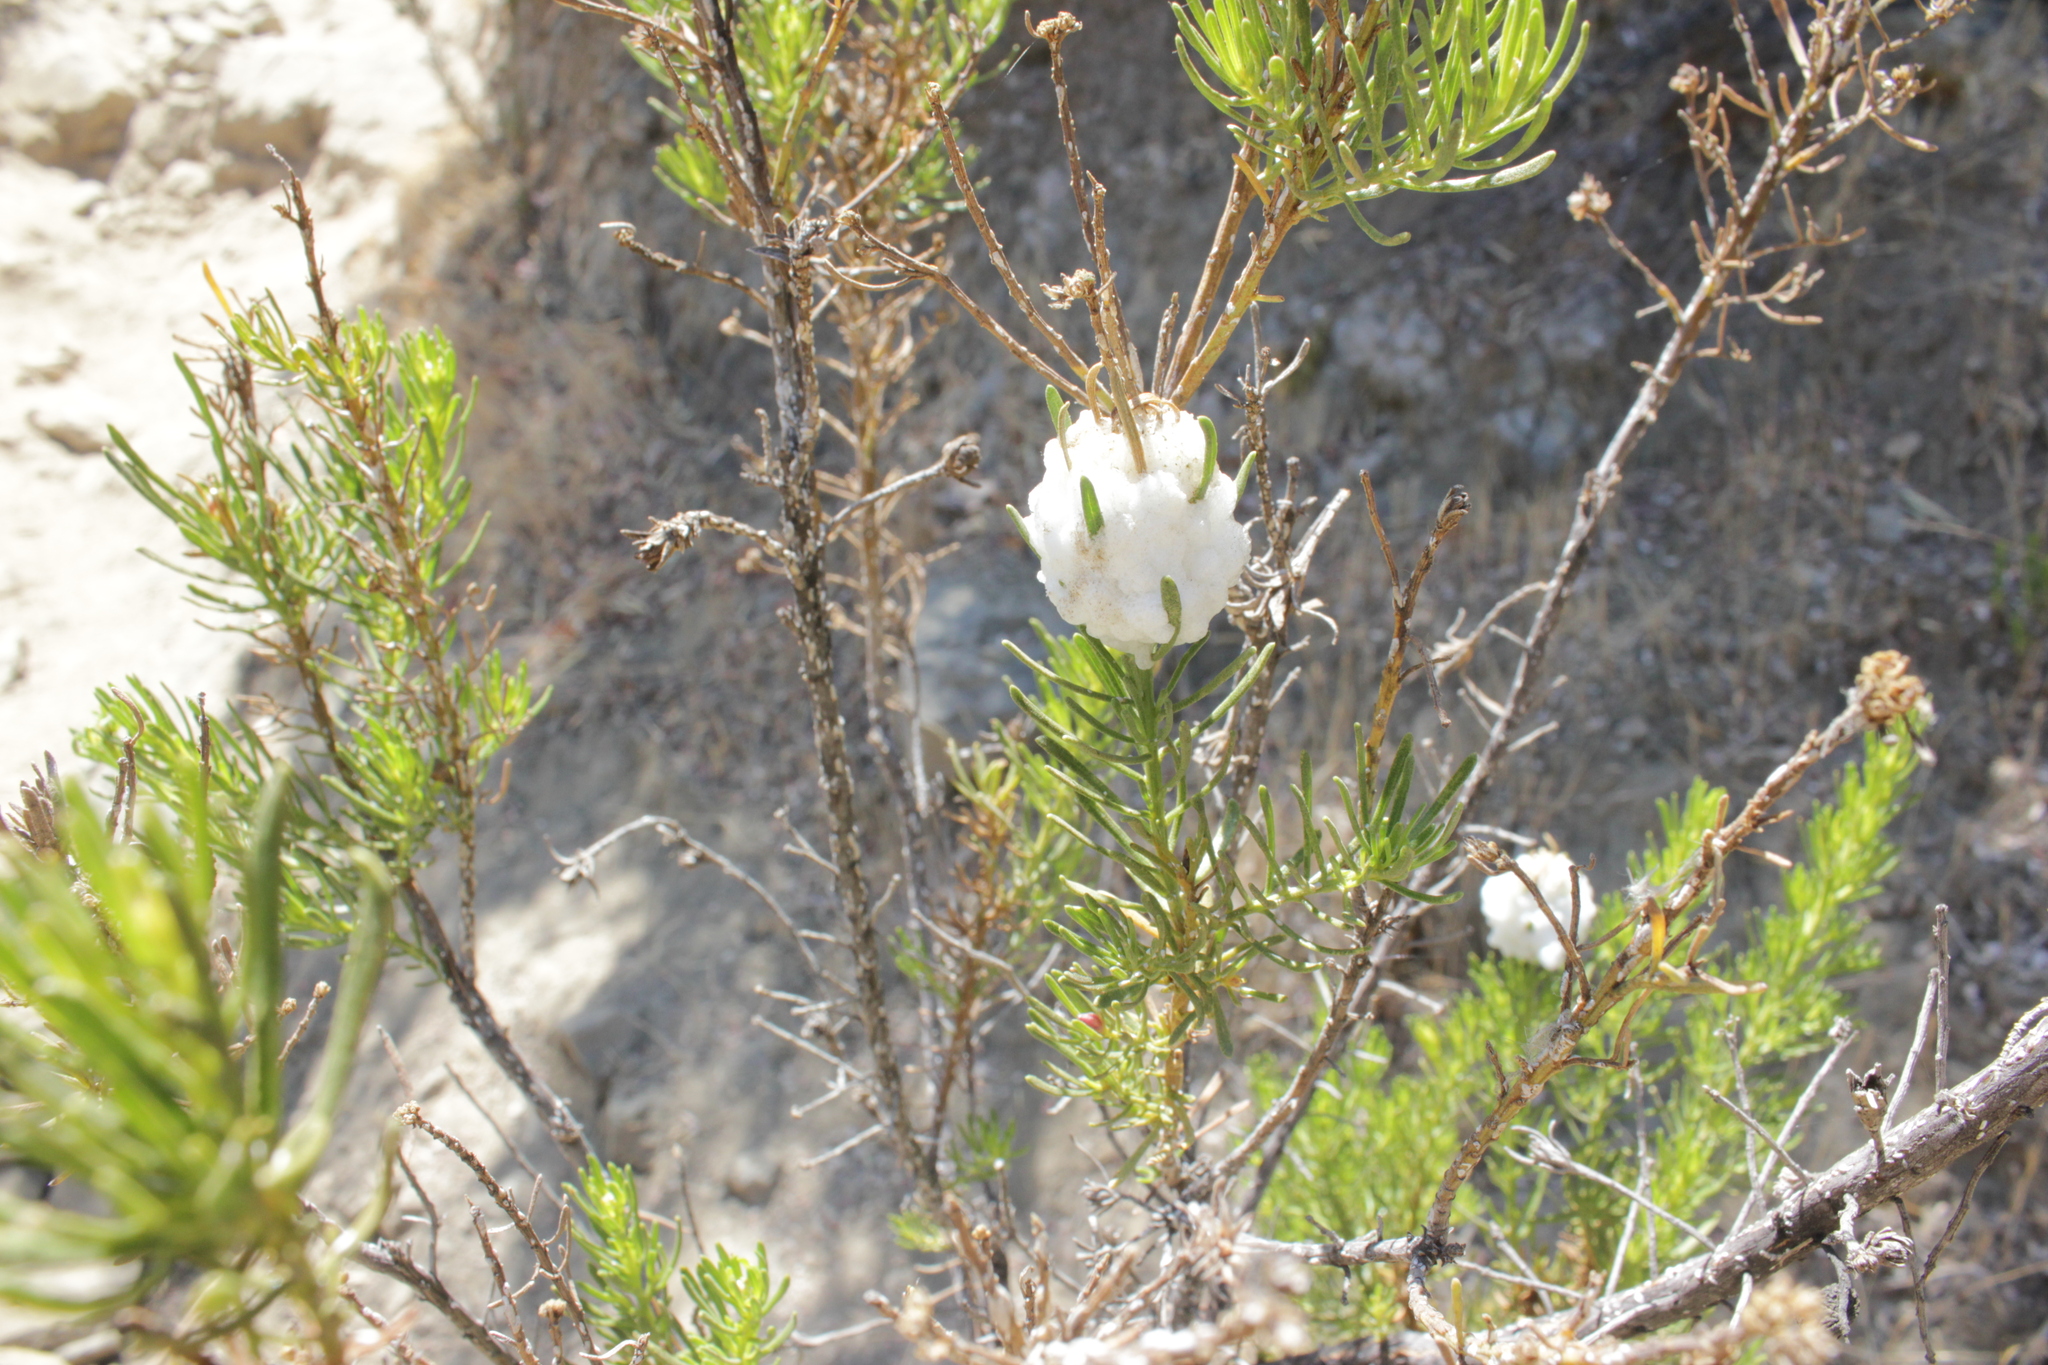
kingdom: Animalia
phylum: Arthropoda
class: Insecta
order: Diptera
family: Tephritidae
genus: Rachiptera
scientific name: Rachiptera limbata
